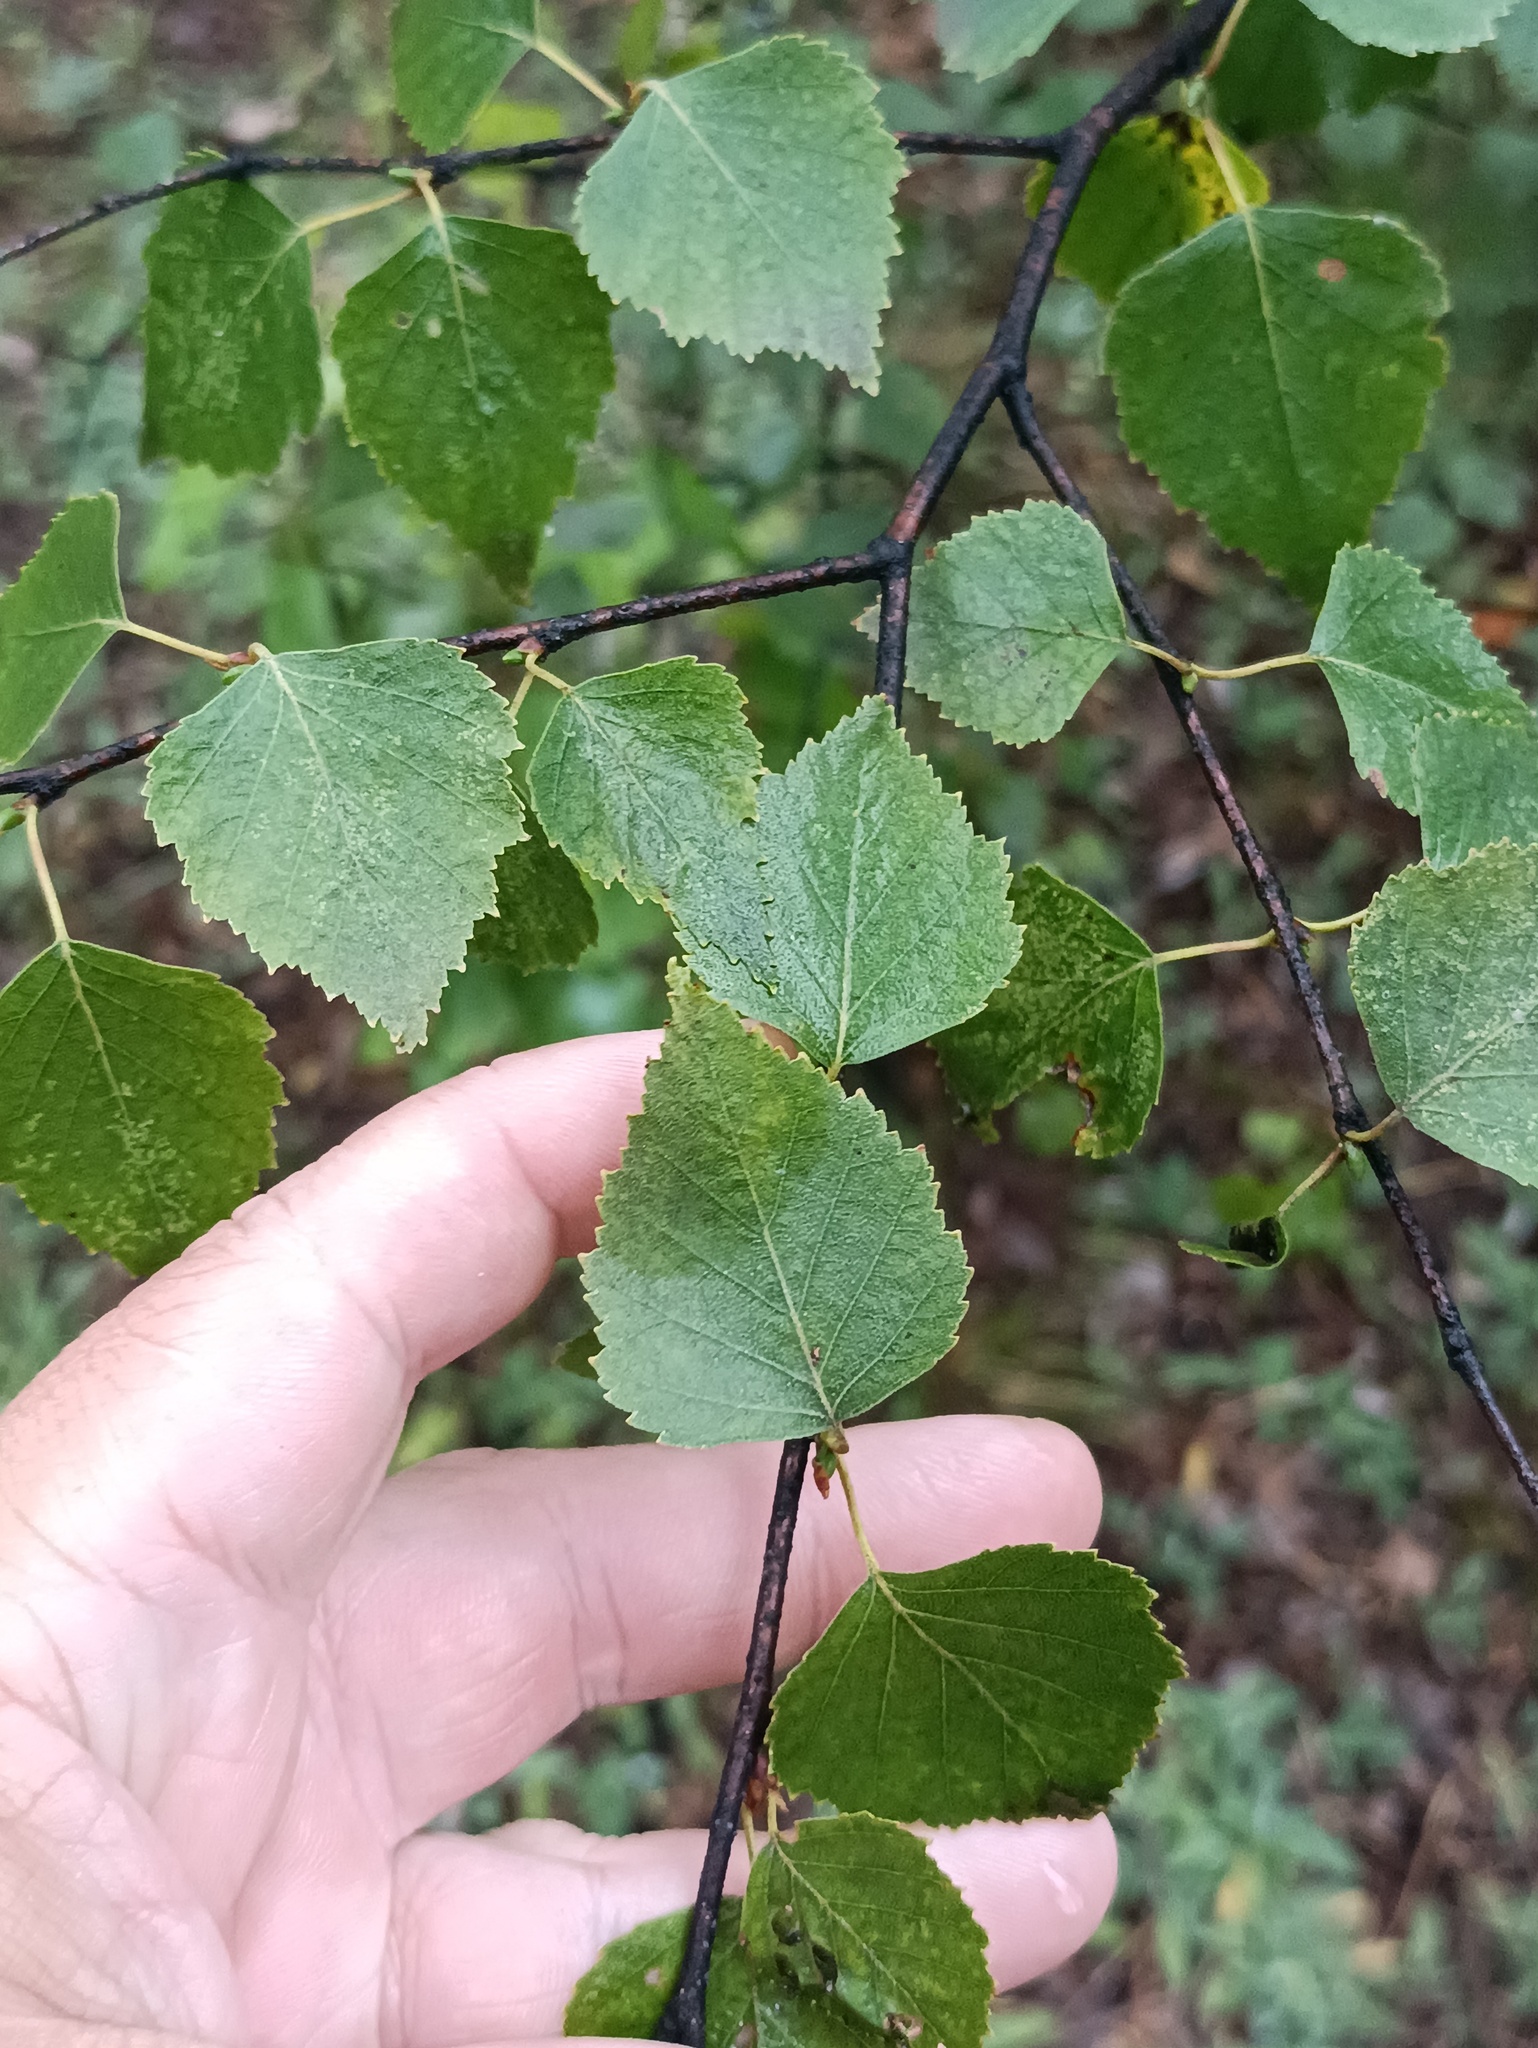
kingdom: Plantae
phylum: Tracheophyta
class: Magnoliopsida
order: Fagales
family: Betulaceae
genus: Betula
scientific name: Betula pendula
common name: Silver birch
